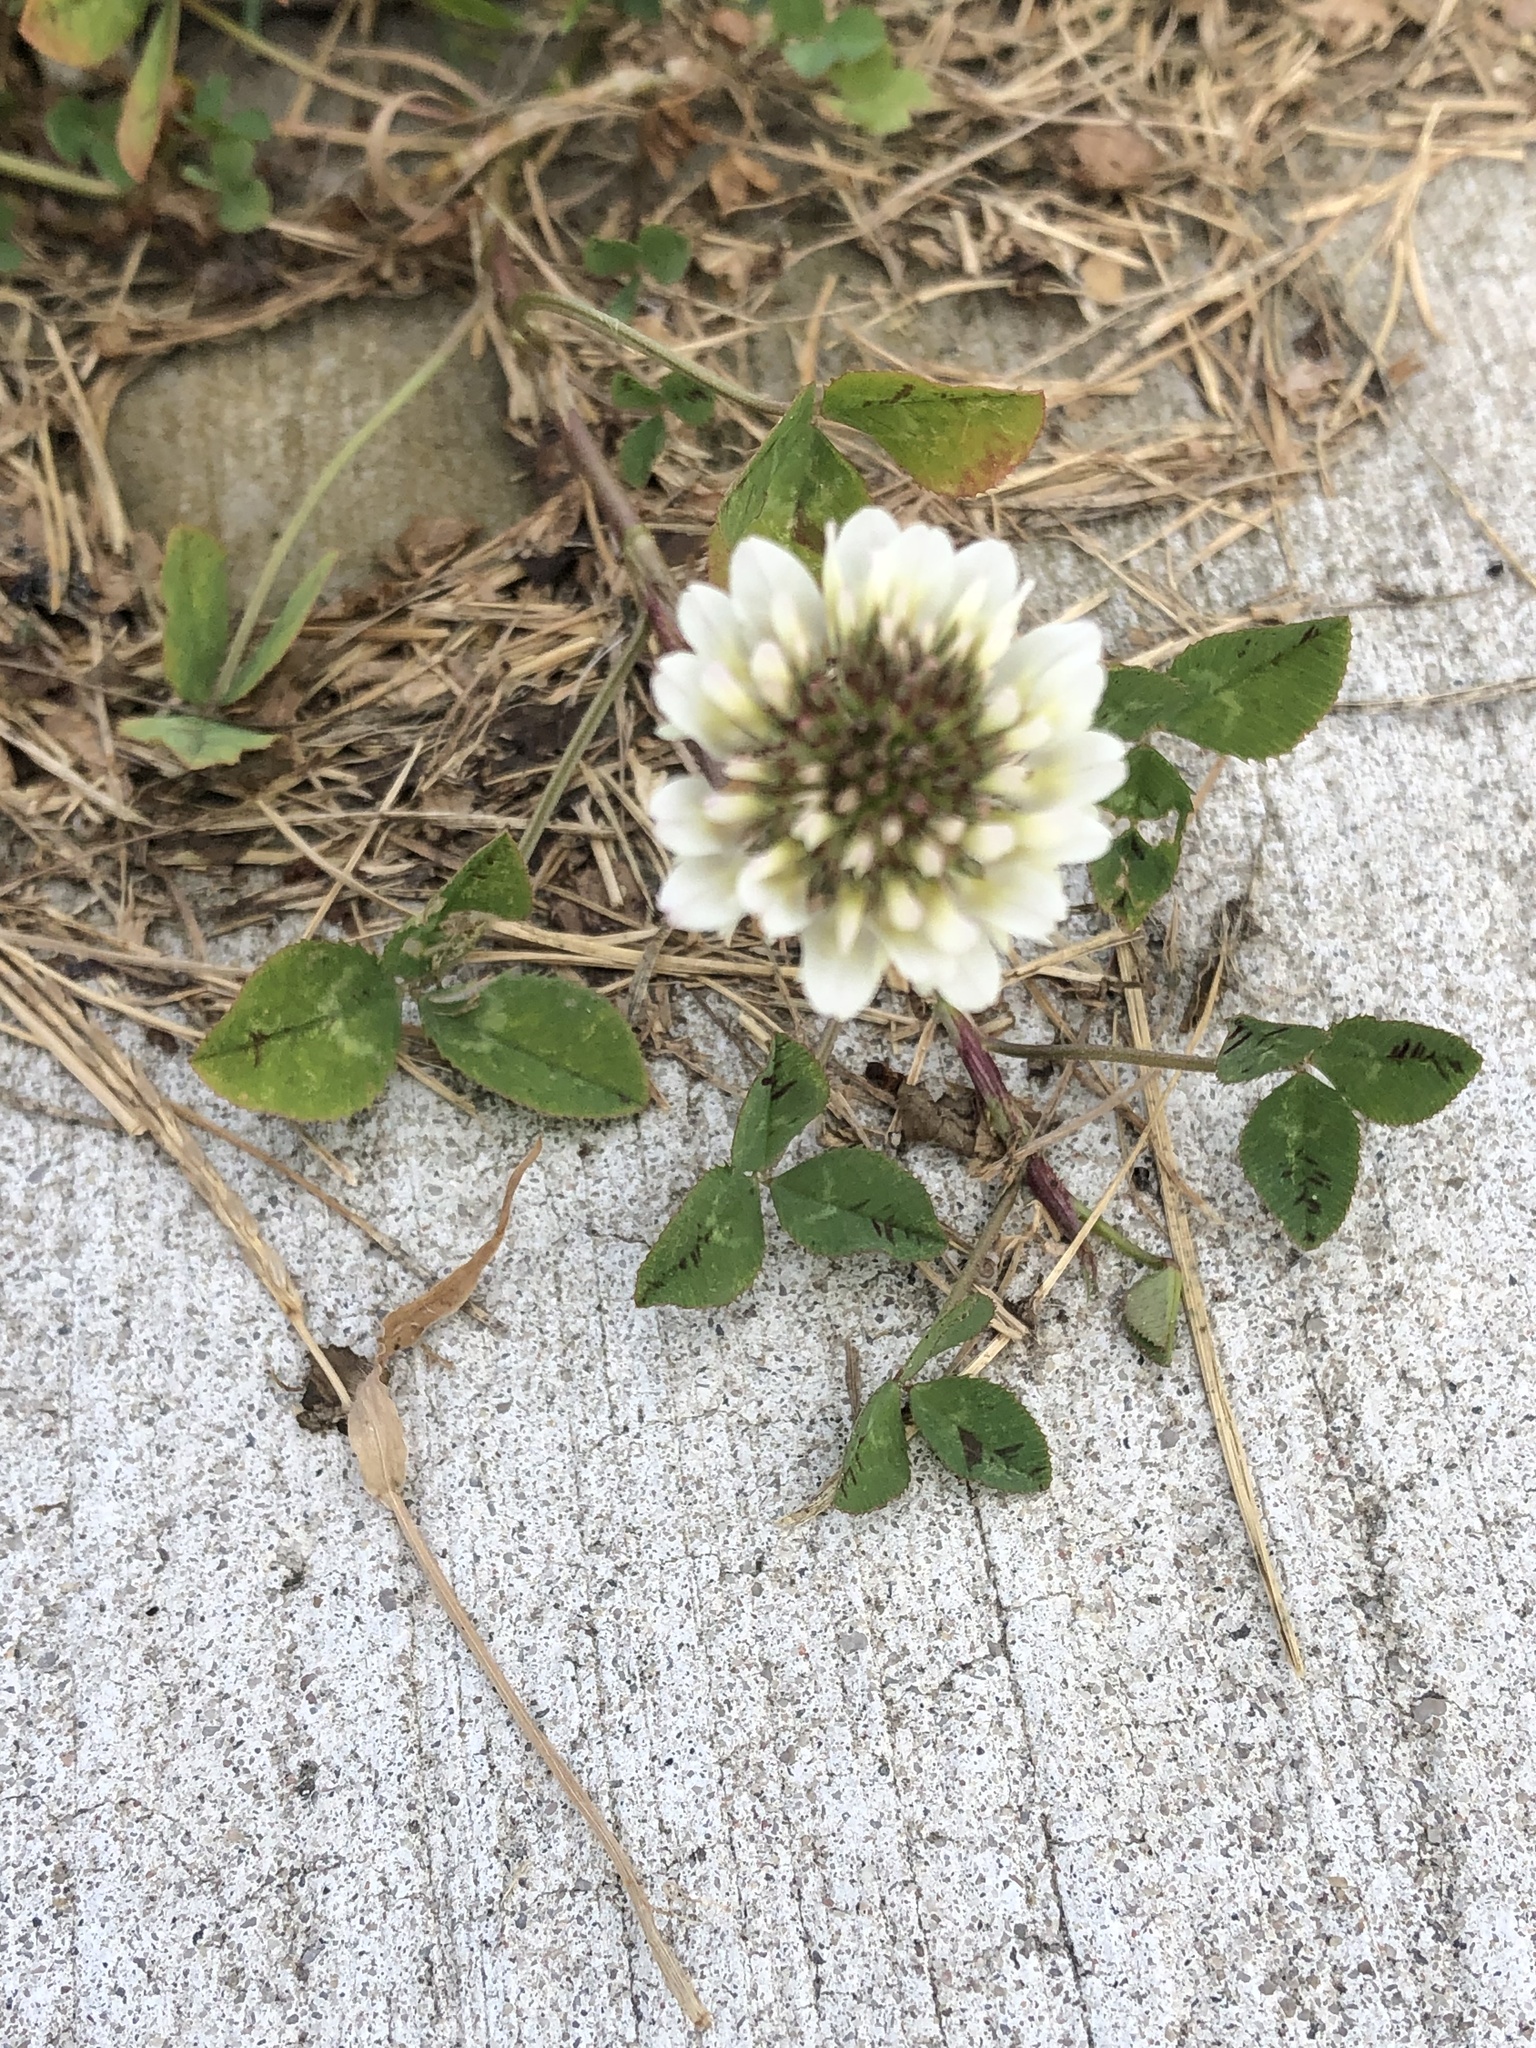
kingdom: Plantae
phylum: Tracheophyta
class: Magnoliopsida
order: Fabales
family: Fabaceae
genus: Trifolium
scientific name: Trifolium repens
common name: White clover
